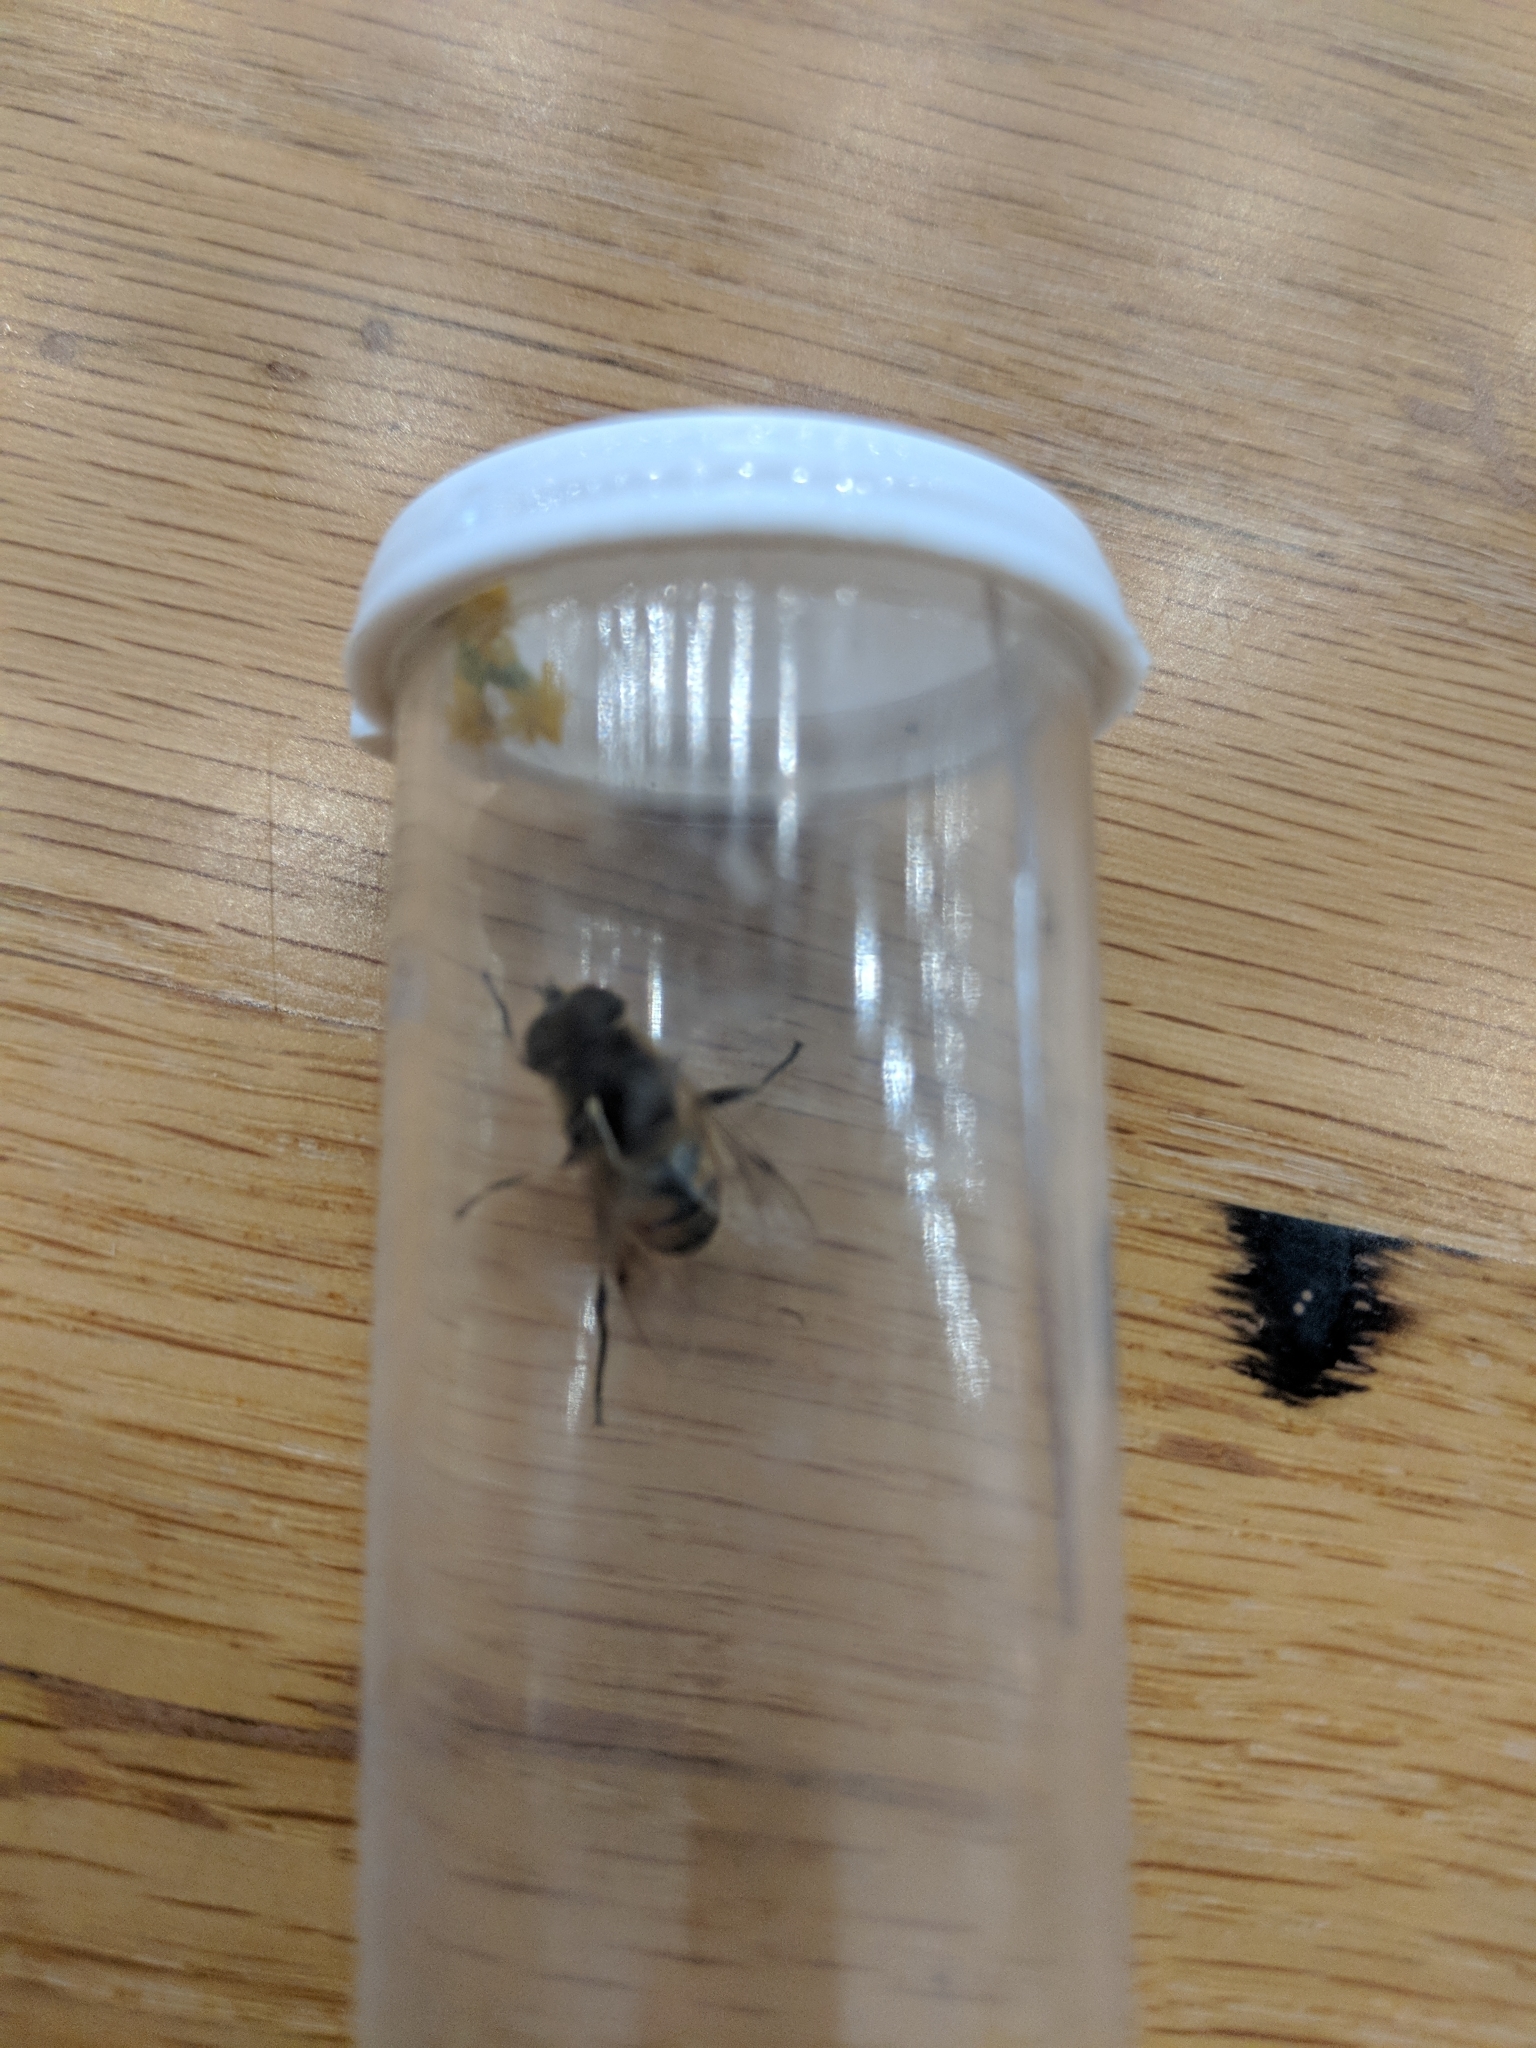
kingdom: Animalia
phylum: Arthropoda
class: Insecta
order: Diptera
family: Syrphidae
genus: Eristalis
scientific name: Eristalis tenax
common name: Drone fly
